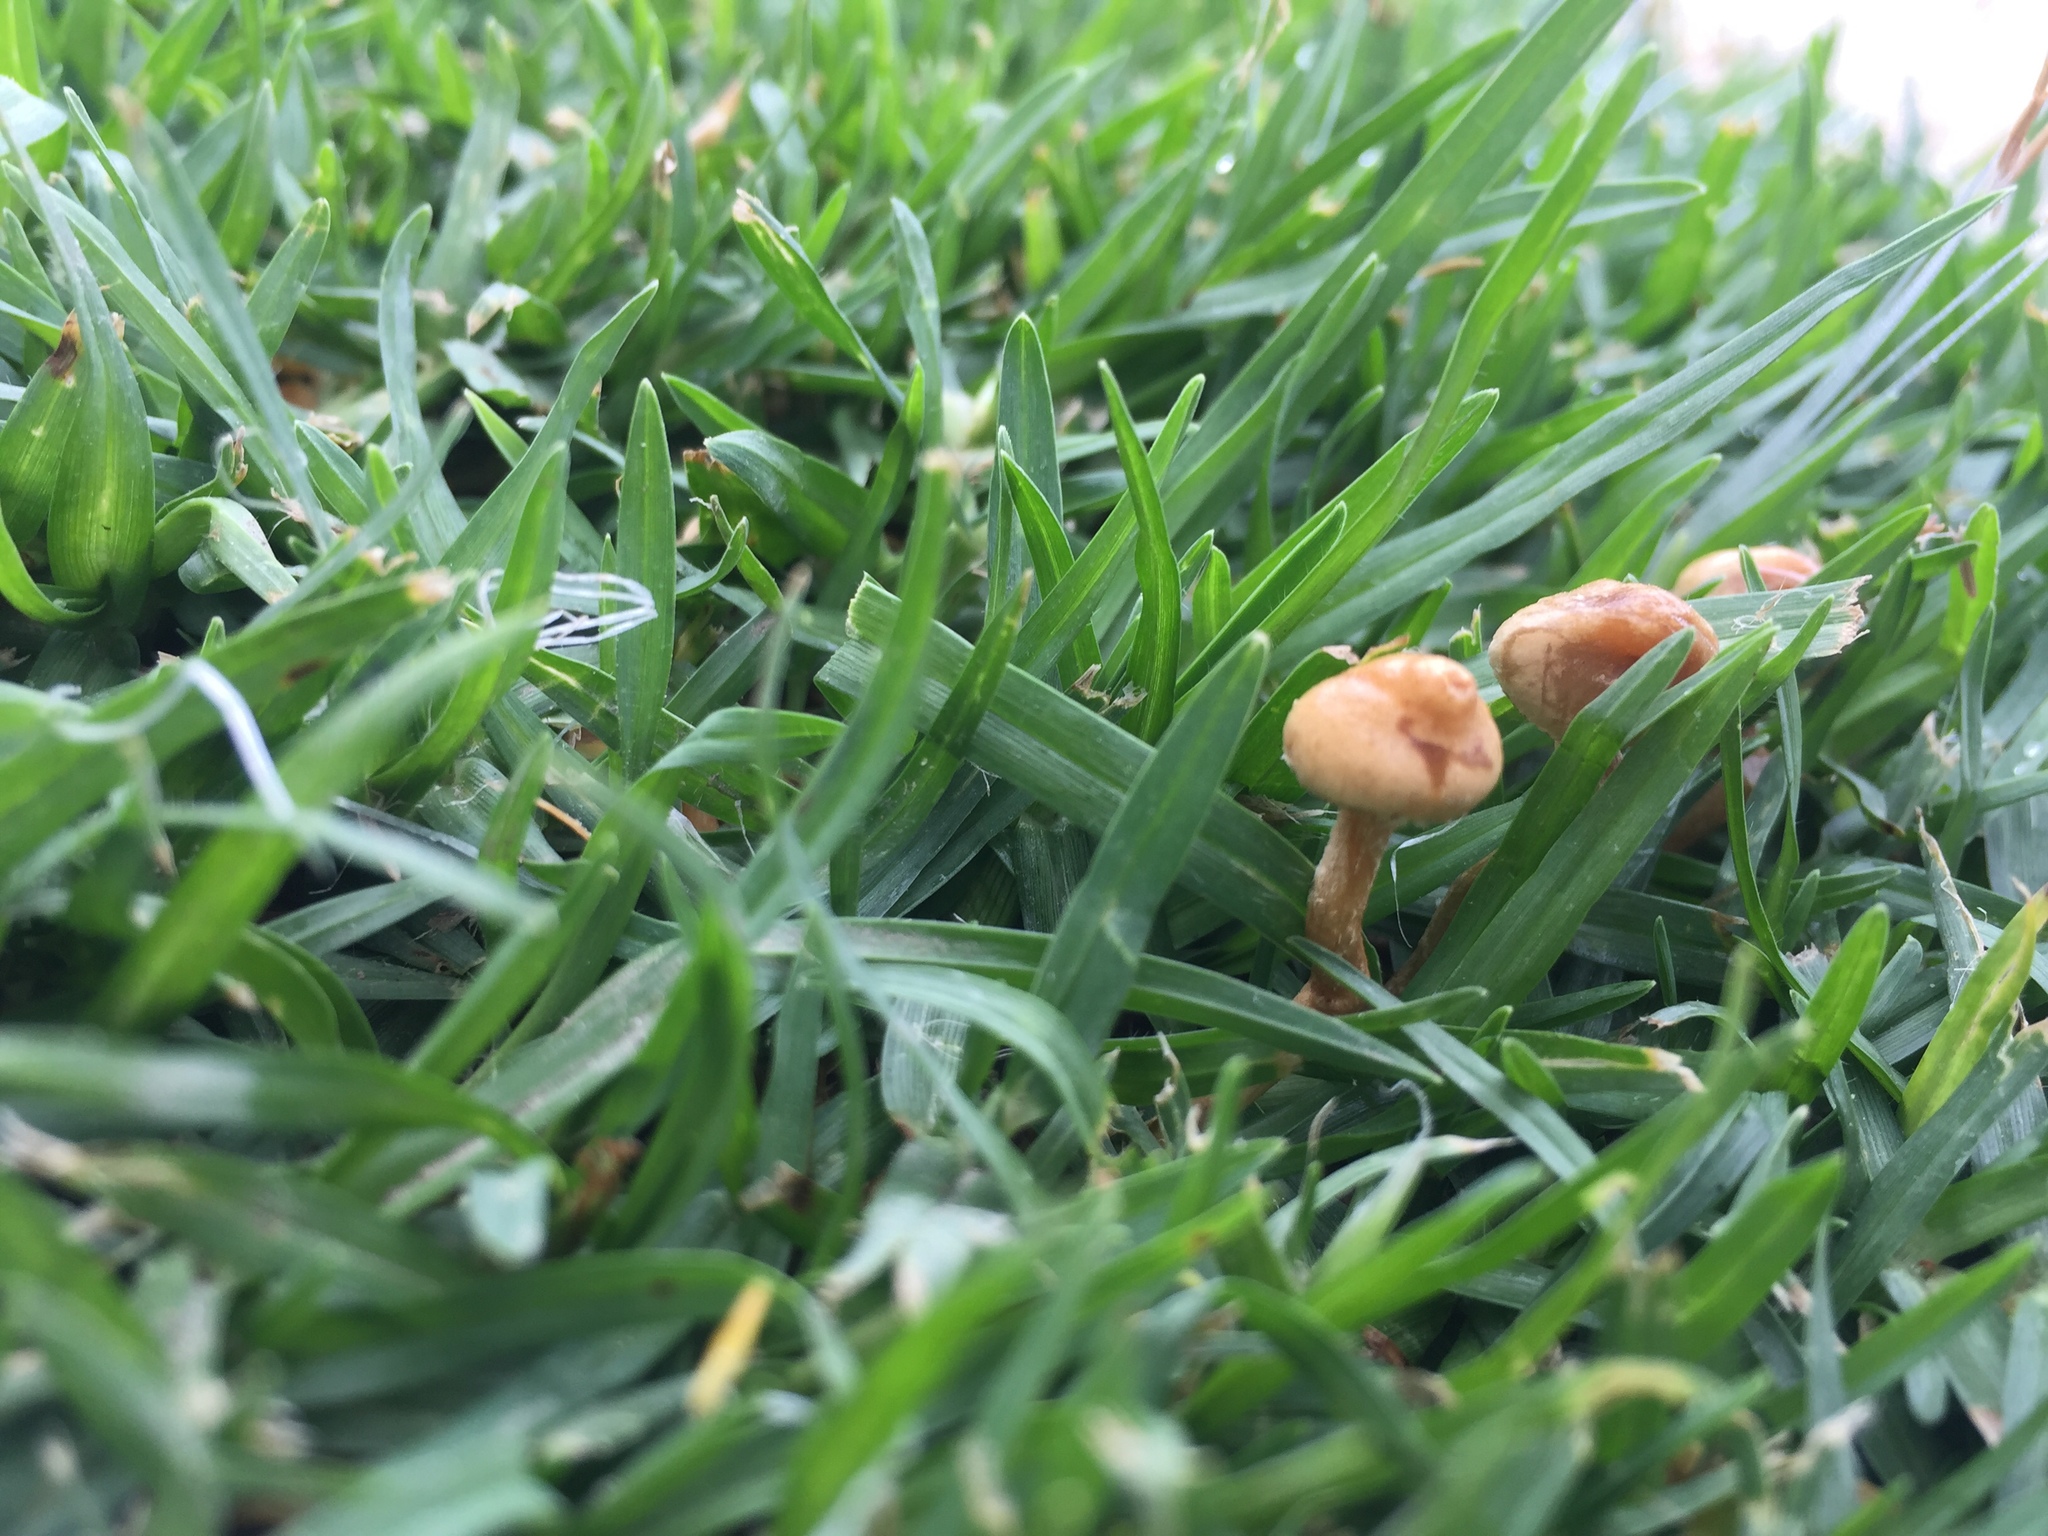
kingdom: Fungi
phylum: Basidiomycota
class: Agaricomycetes
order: Agaricales
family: Bolbitiaceae
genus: Panaeolina
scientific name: Panaeolina foenisecii
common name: Brown hay cap
